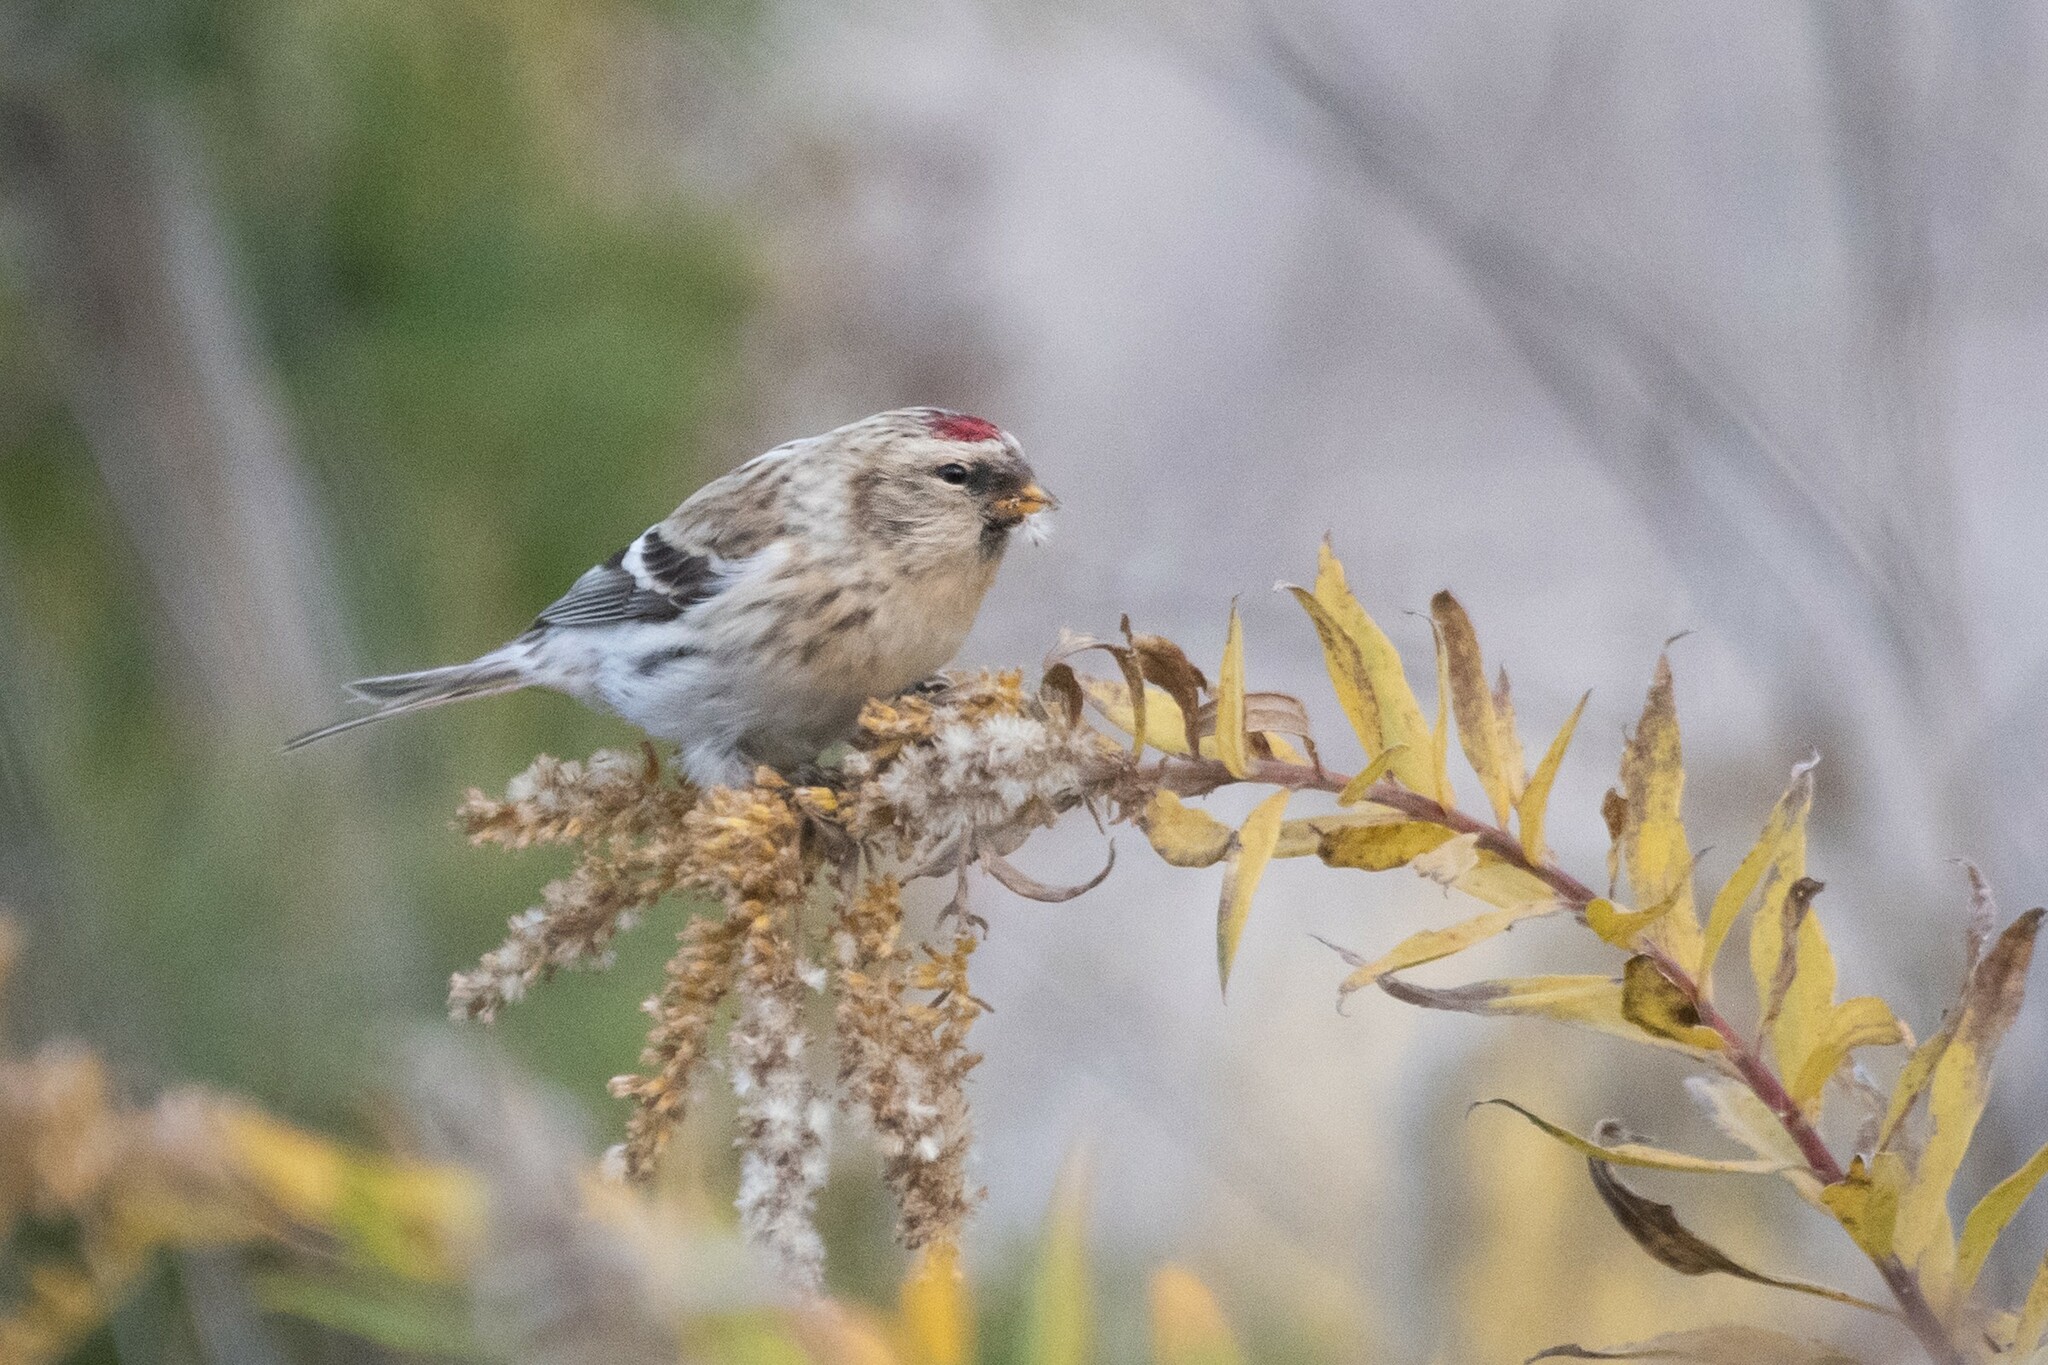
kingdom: Animalia
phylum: Chordata
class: Aves
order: Passeriformes
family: Fringillidae
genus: Acanthis
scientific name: Acanthis hornemanni
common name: Arctic redpoll
